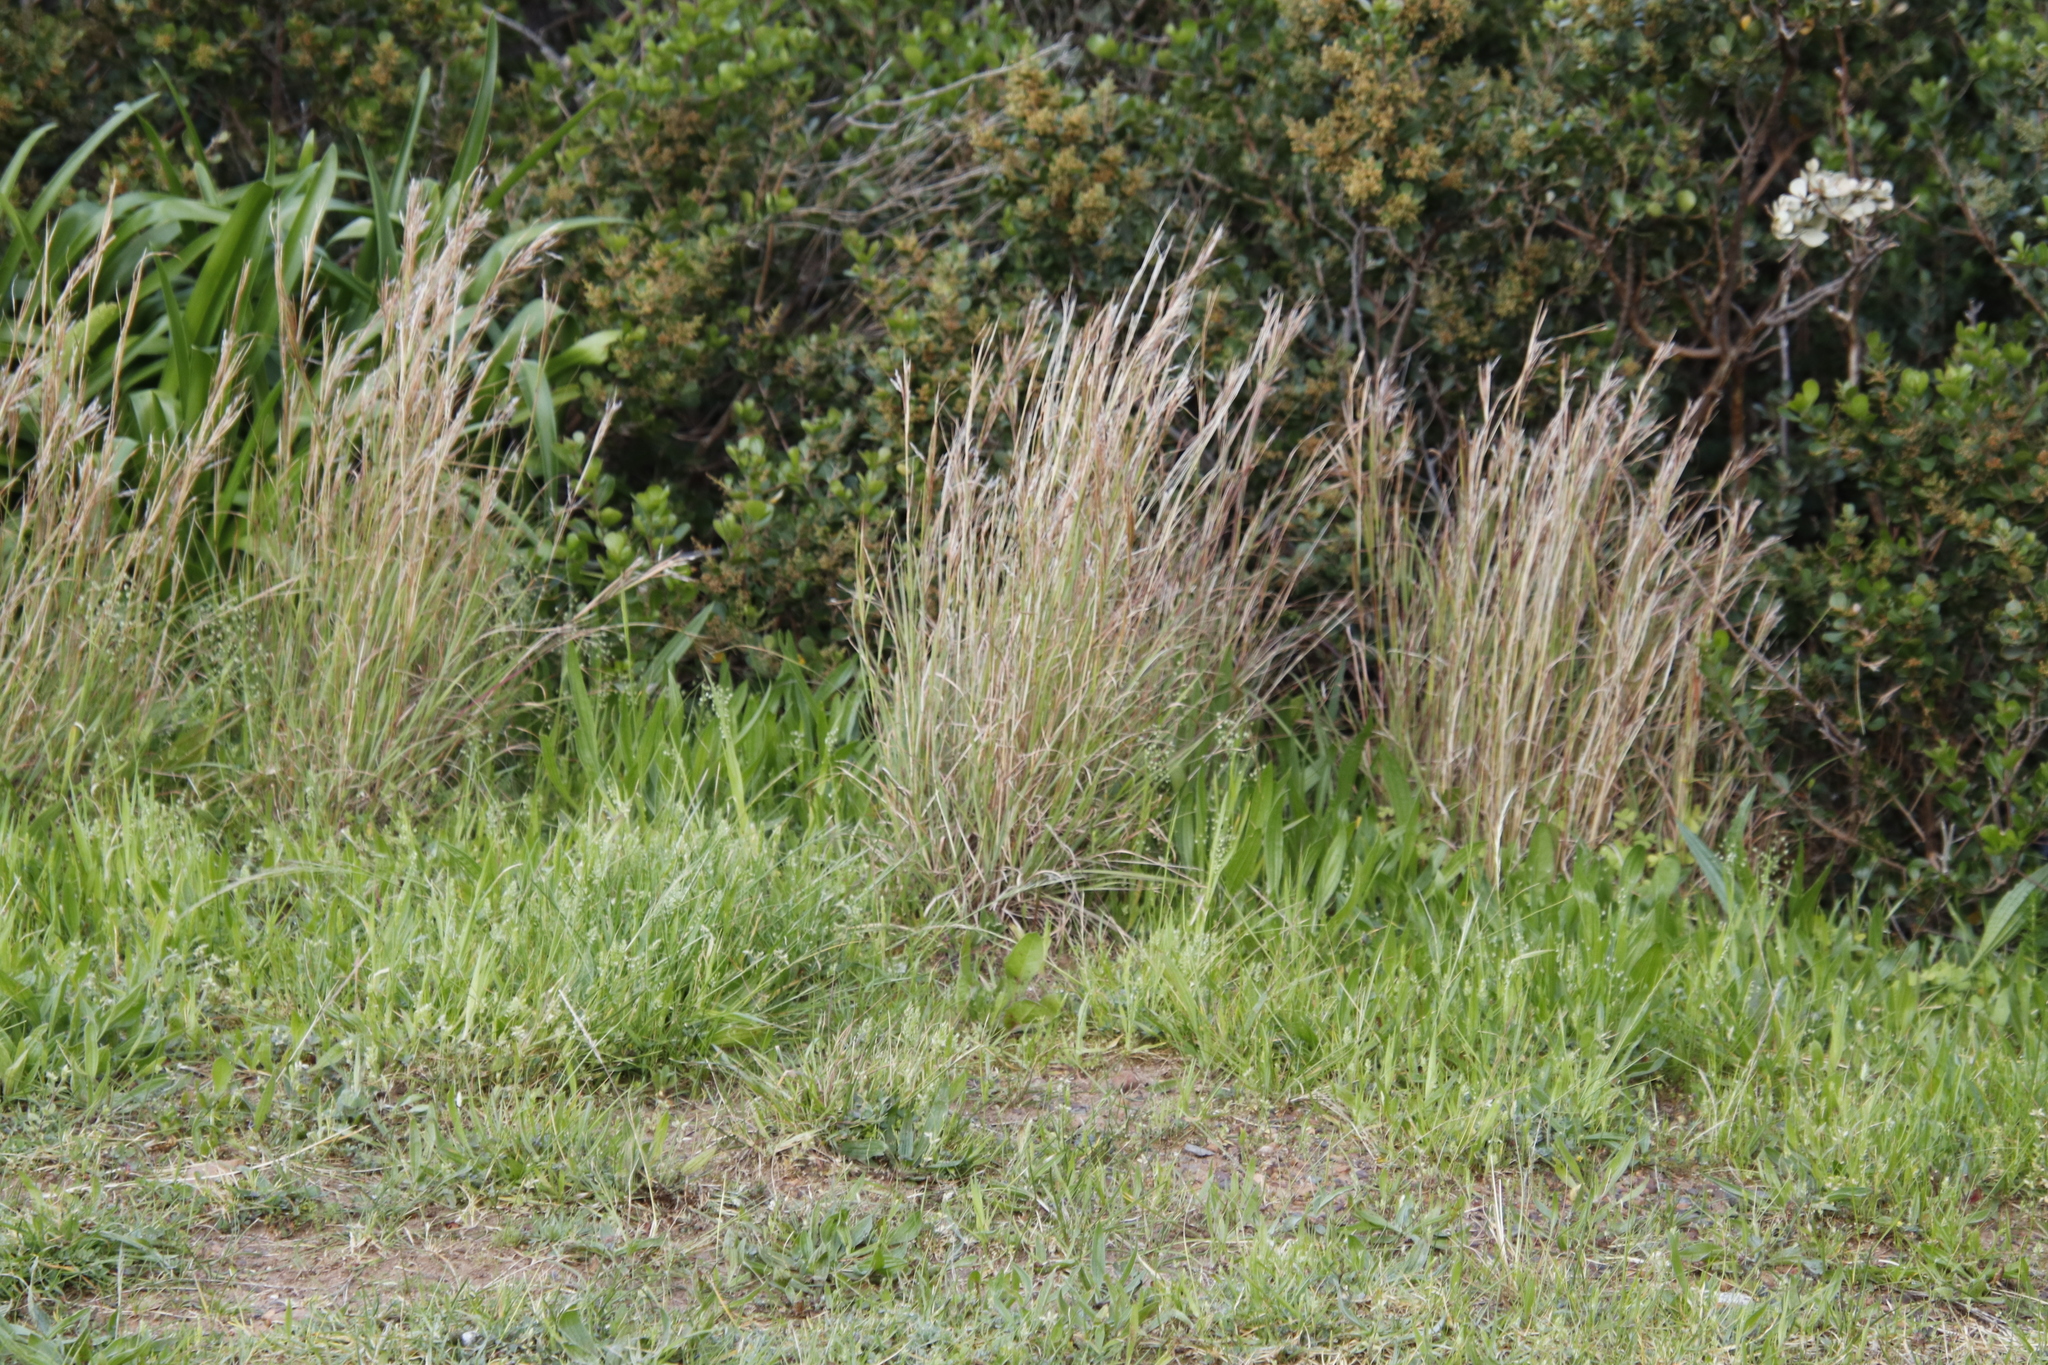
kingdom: Plantae
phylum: Tracheophyta
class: Liliopsida
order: Poales
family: Poaceae
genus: Hyparrhenia
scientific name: Hyparrhenia hirta
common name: Thatching grass
